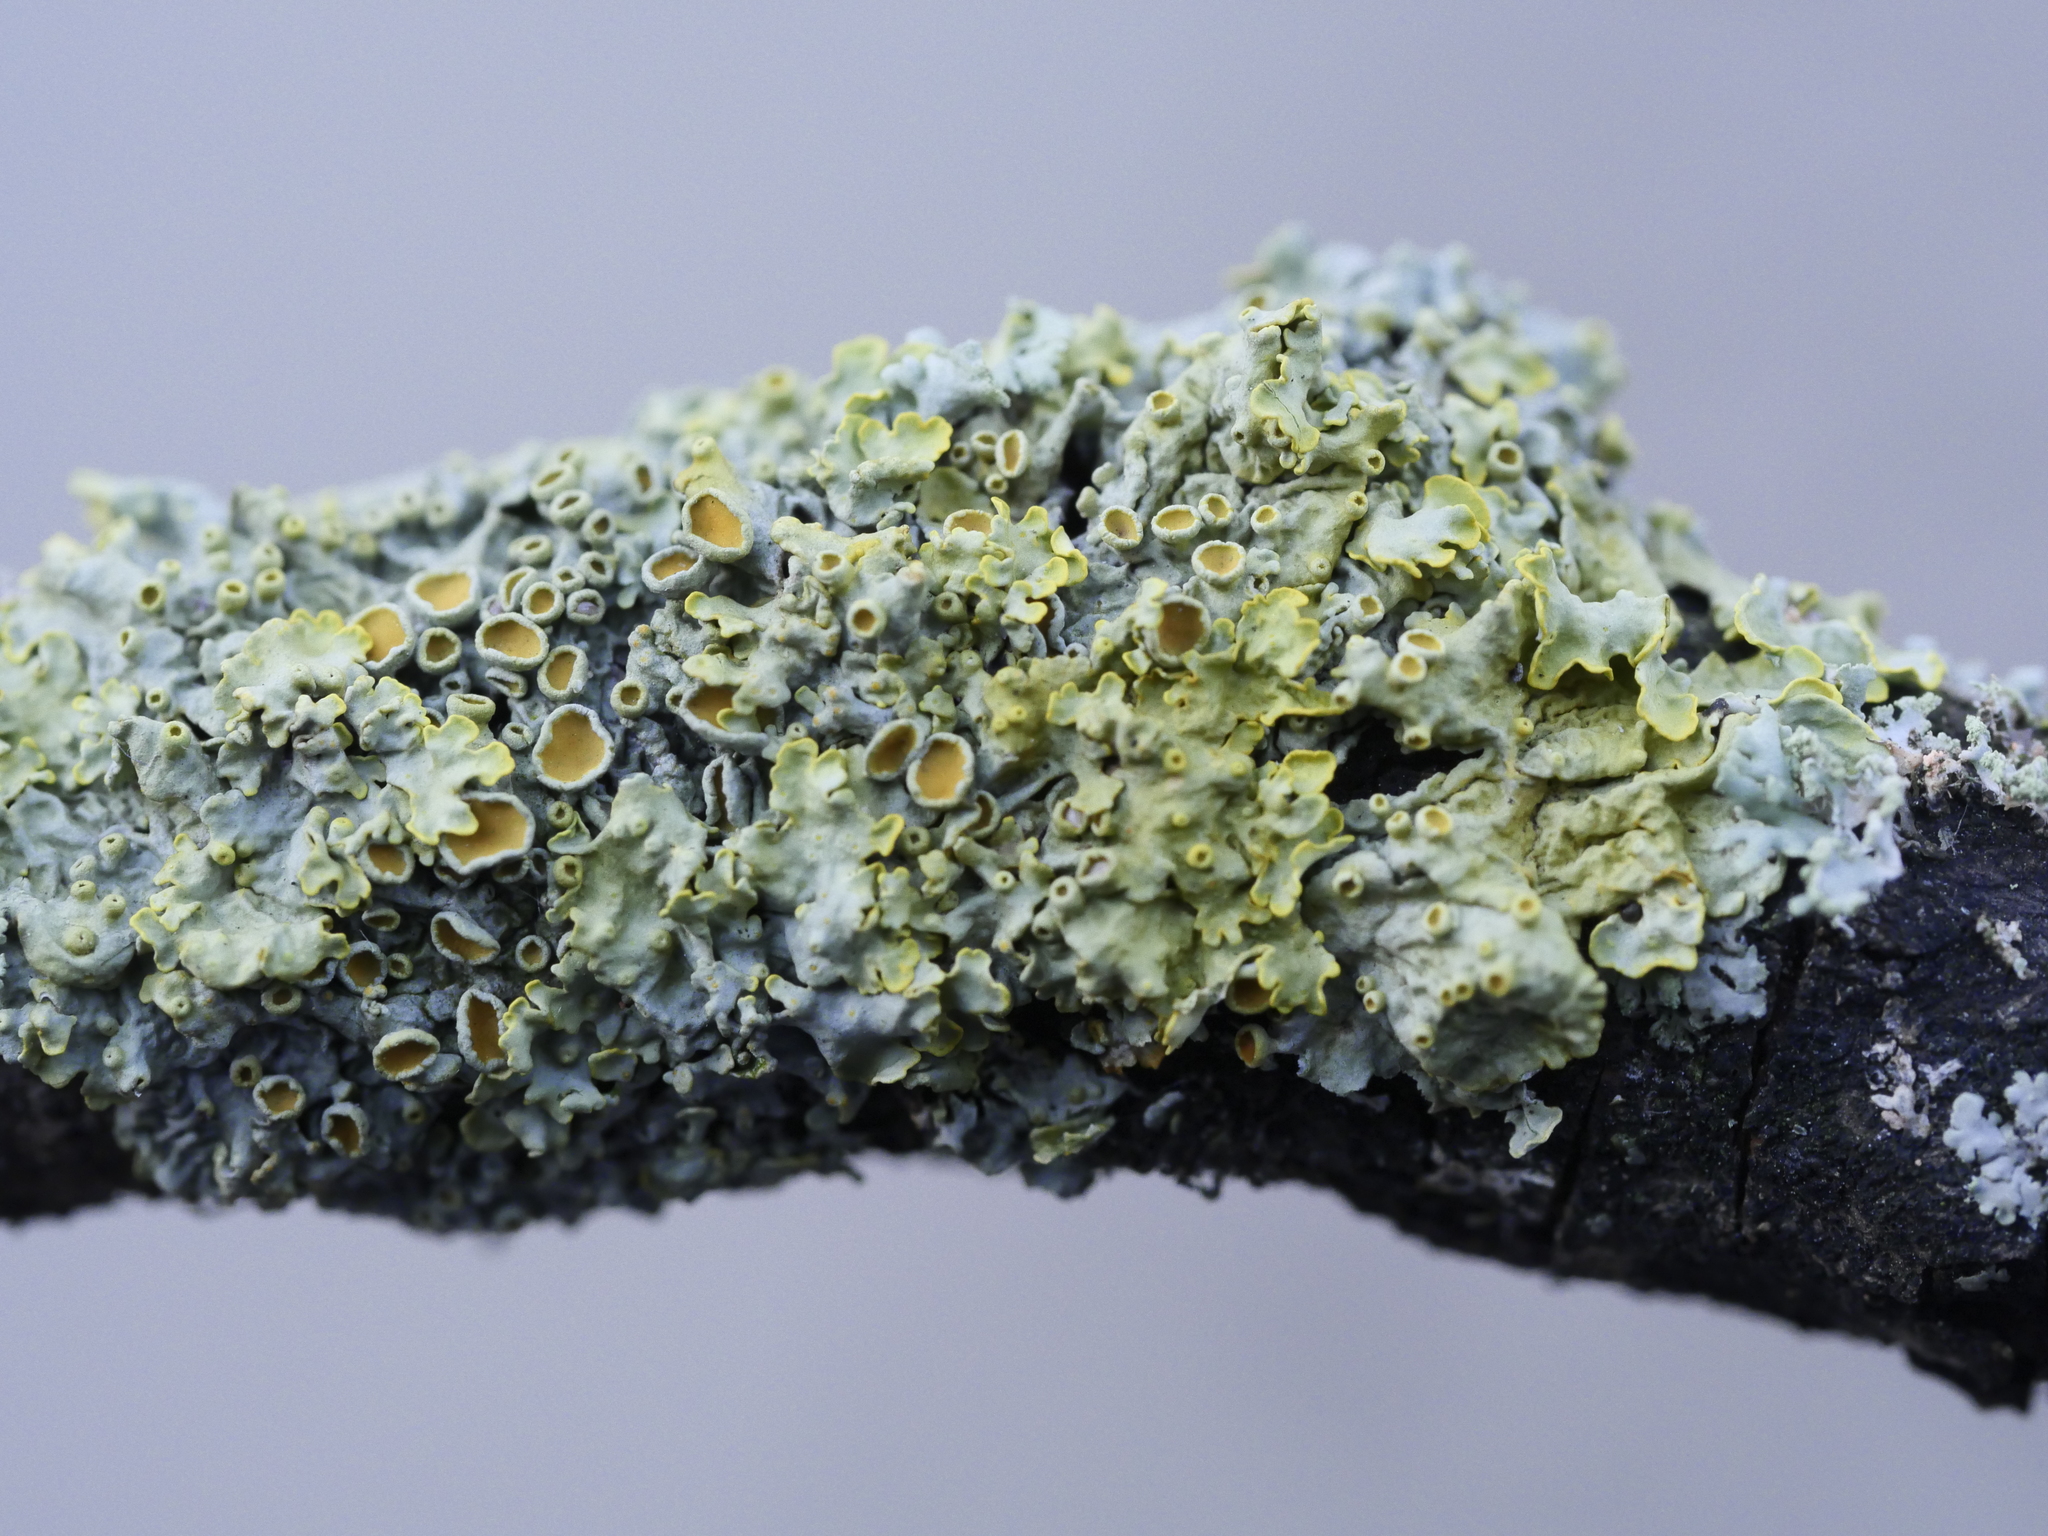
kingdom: Fungi
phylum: Ascomycota
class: Lecanoromycetes
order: Teloschistales
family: Teloschistaceae
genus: Xanthoria
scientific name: Xanthoria parietina
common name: Common orange lichen
